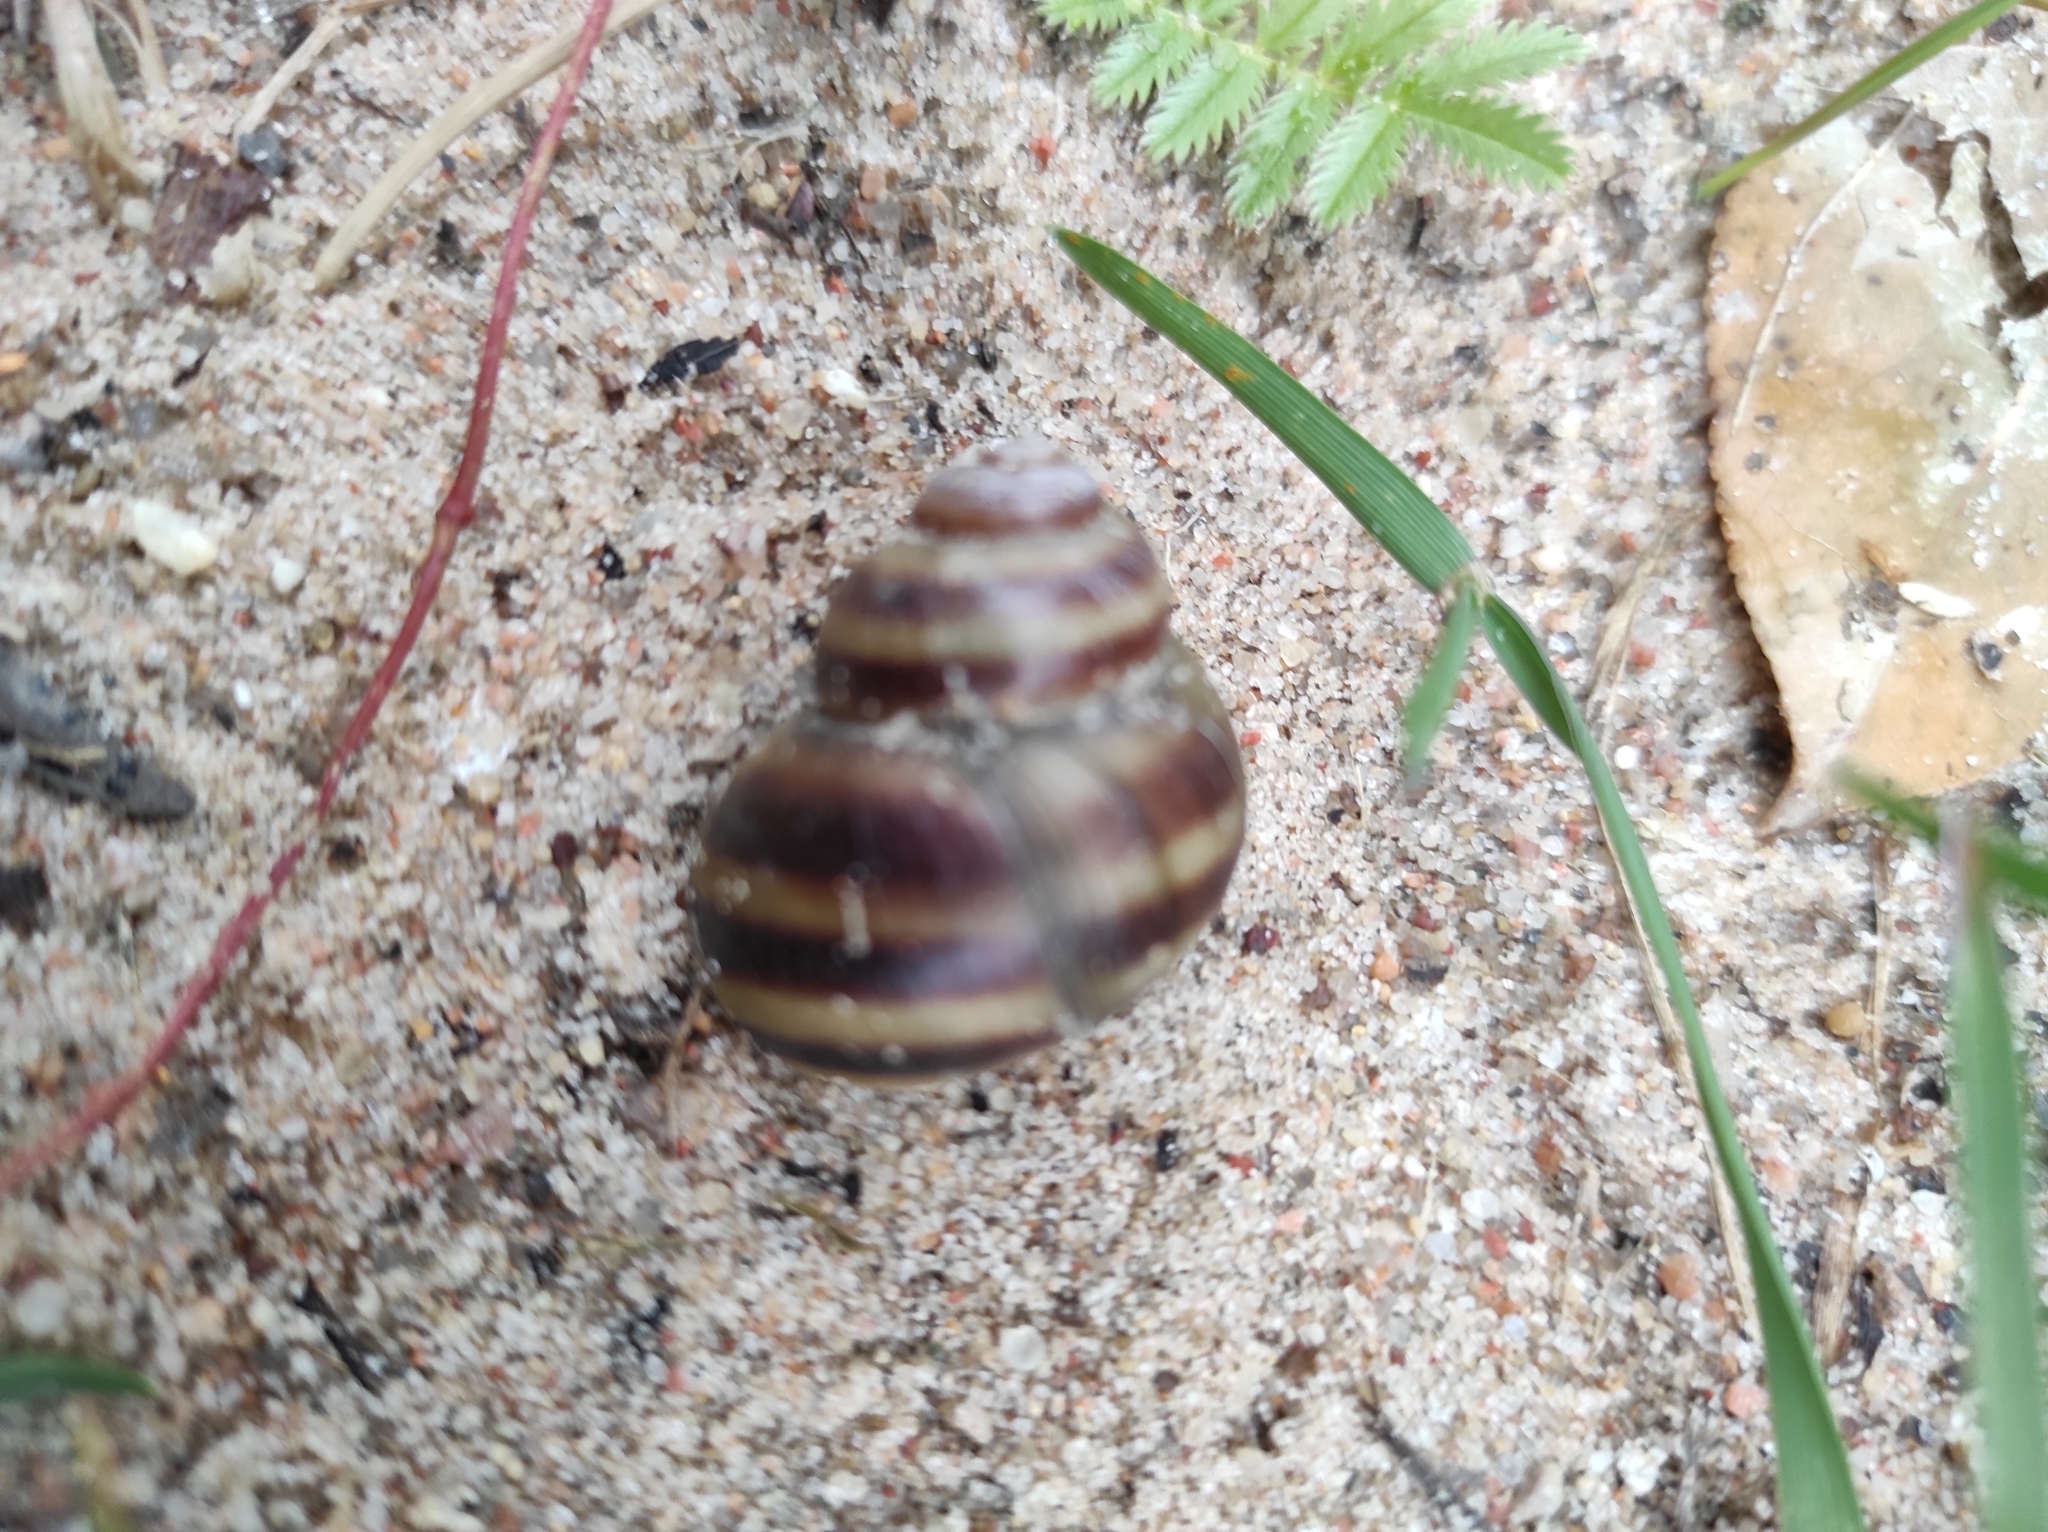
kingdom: Animalia
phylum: Mollusca
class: Gastropoda
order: Architaenioglossa
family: Viviparidae
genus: Viviparus
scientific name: Viviparus viviparus
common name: River snail
